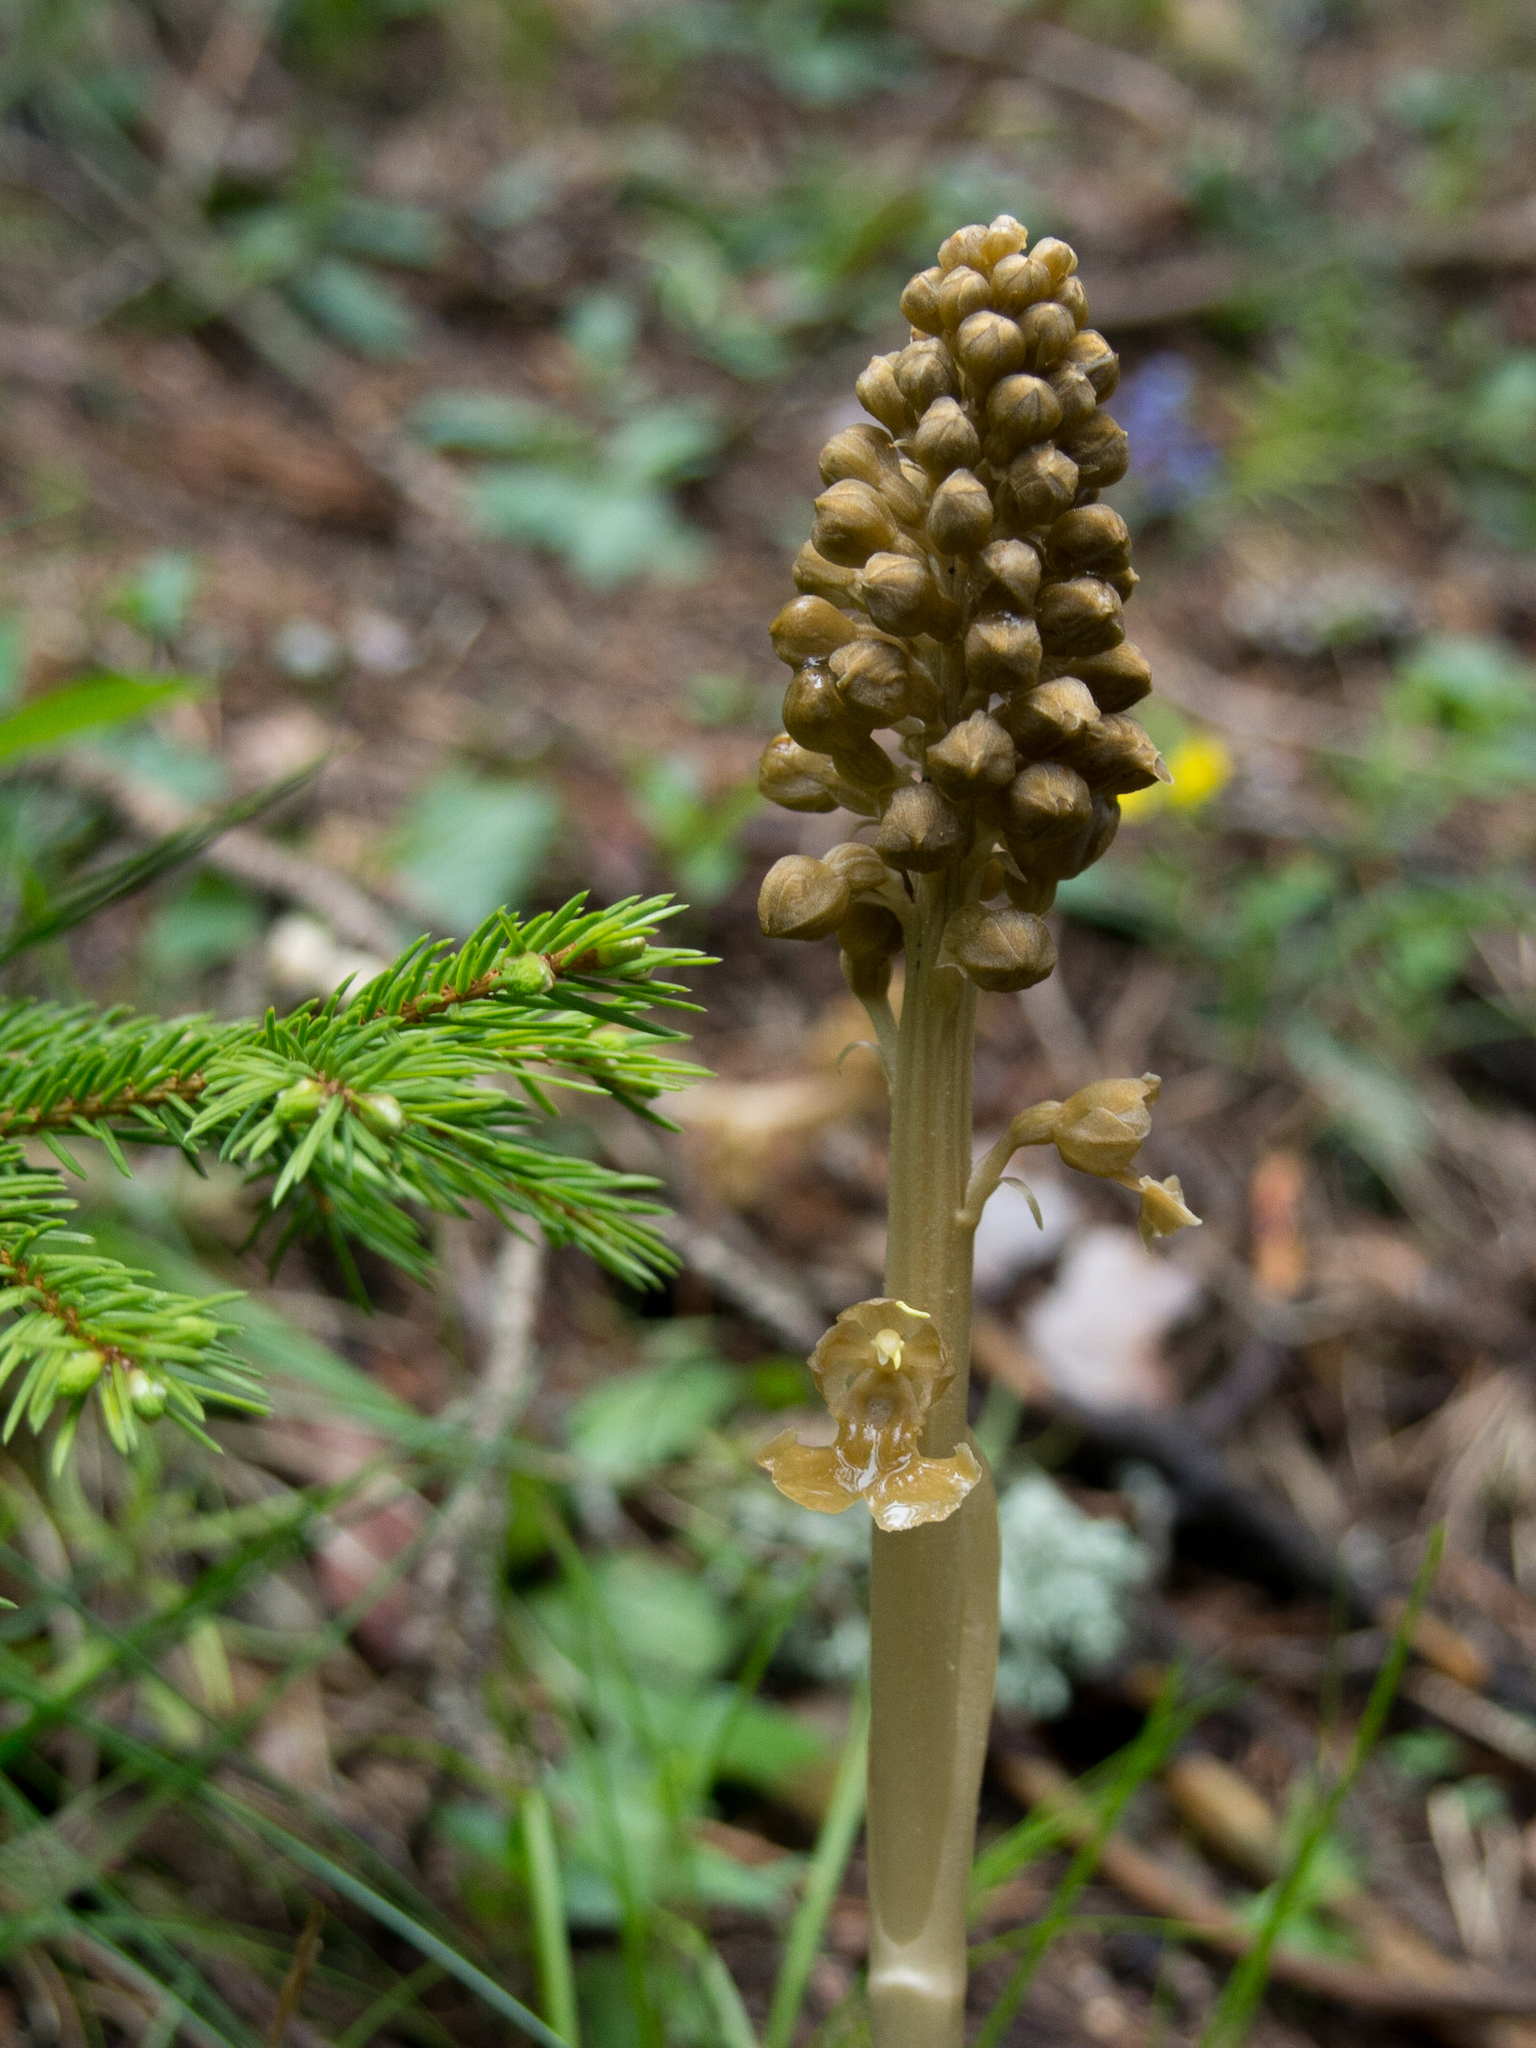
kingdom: Plantae
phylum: Tracheophyta
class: Liliopsida
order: Asparagales
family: Orchidaceae
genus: Neottia
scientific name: Neottia nidus-avis
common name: Bird's-nest orchid
